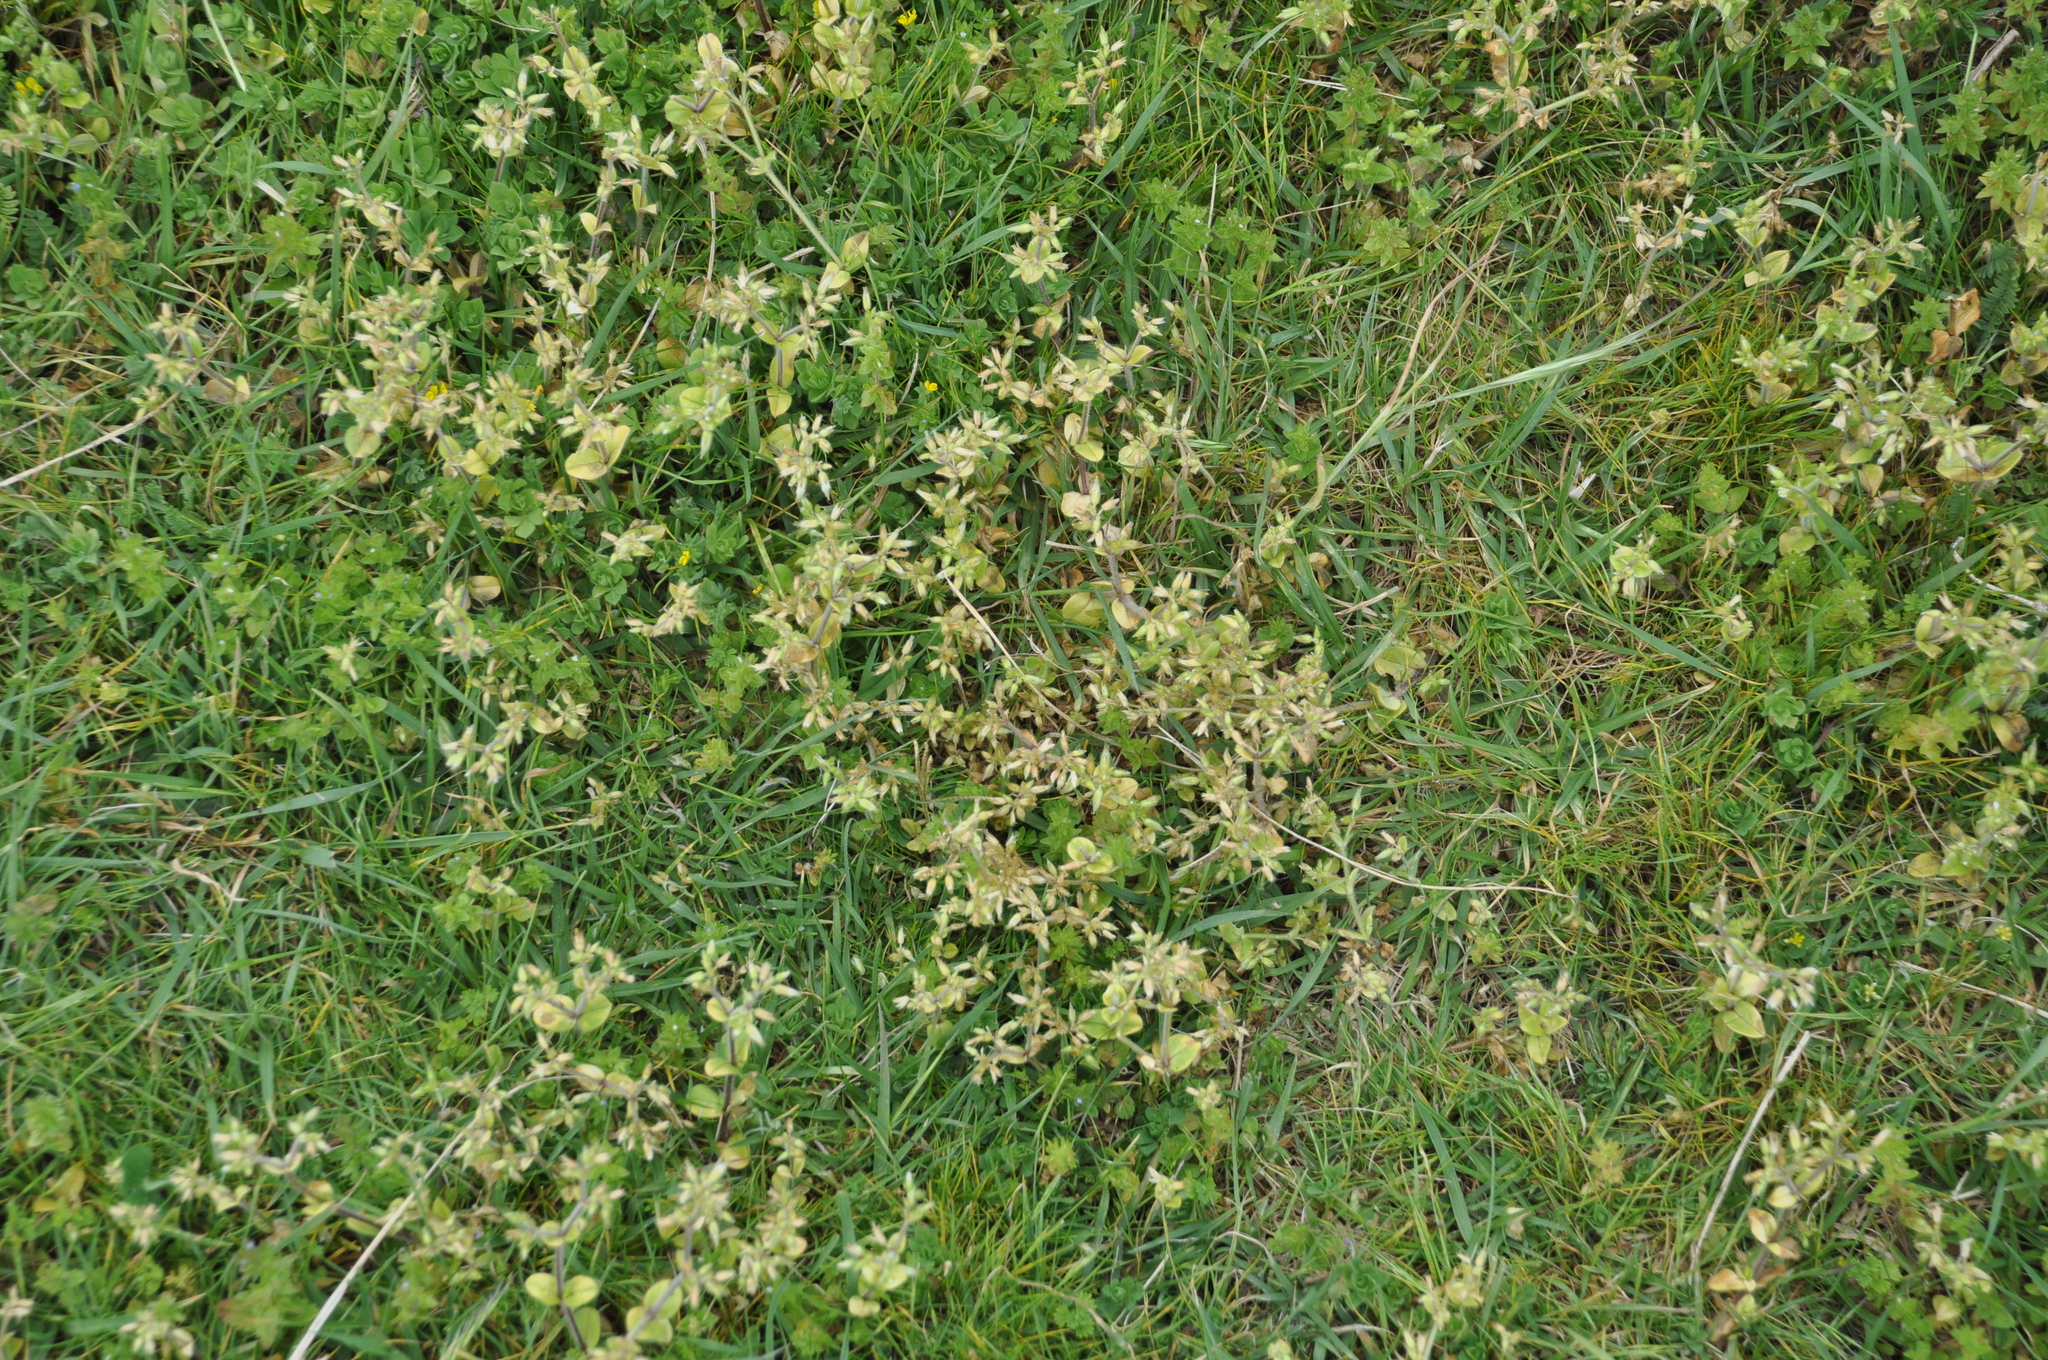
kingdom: Plantae
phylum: Tracheophyta
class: Magnoliopsida
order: Caryophyllales
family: Caryophyllaceae
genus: Cerastium
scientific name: Cerastium glomeratum
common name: Sticky chickweed
